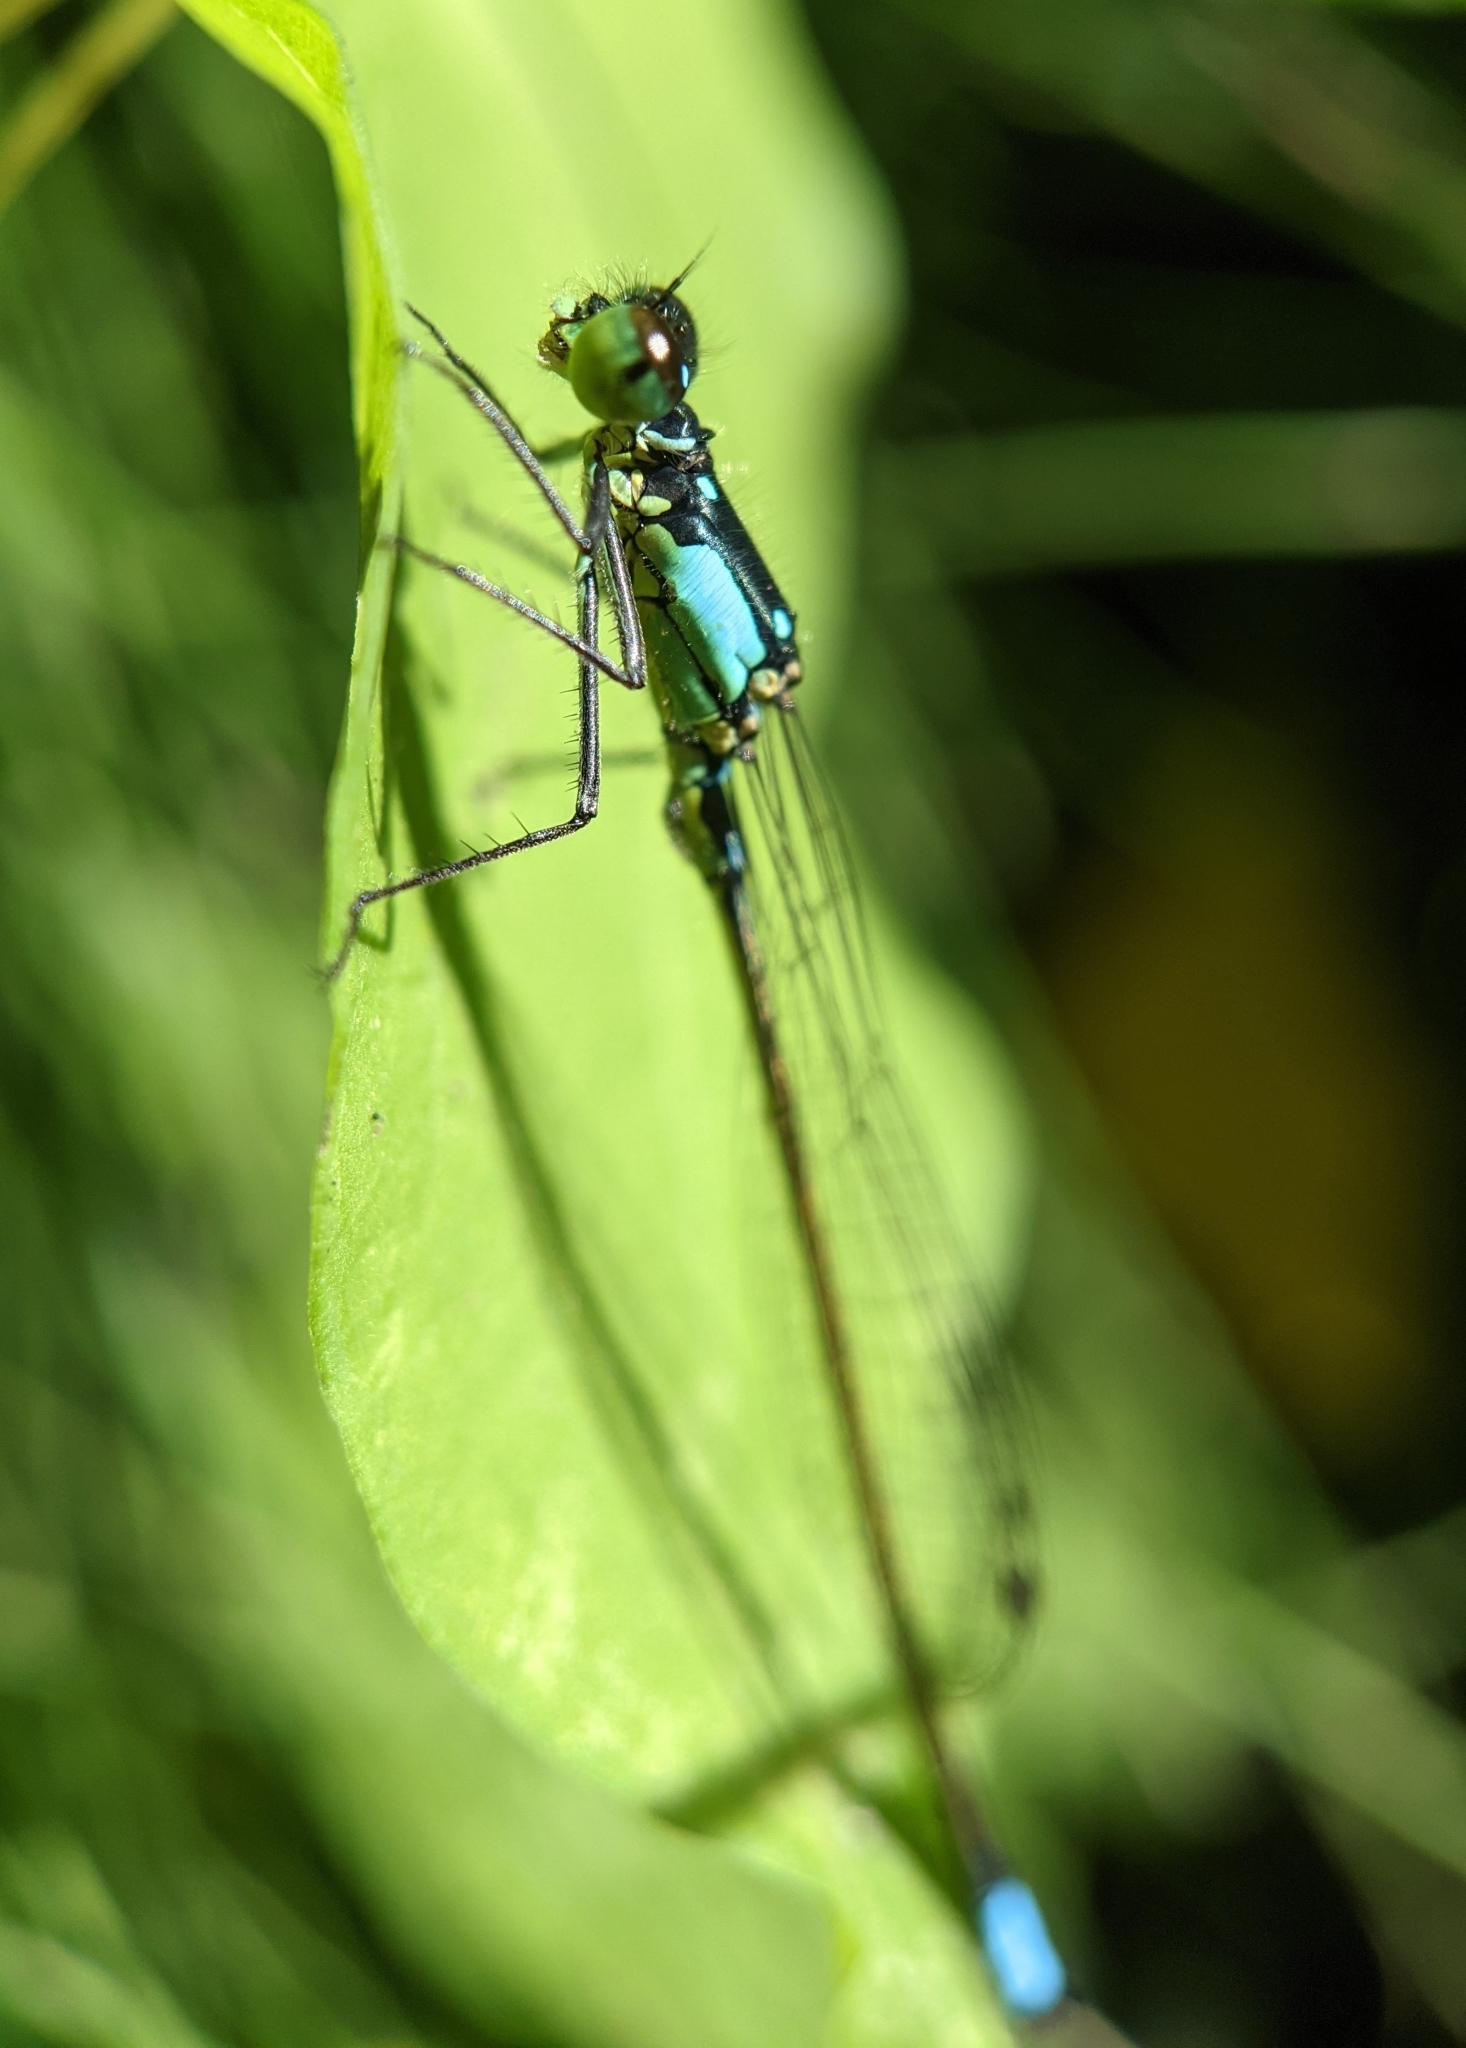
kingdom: Animalia
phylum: Arthropoda
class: Insecta
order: Odonata
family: Coenagrionidae
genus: Ischnura
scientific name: Ischnura cervula
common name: Pacific forktail
